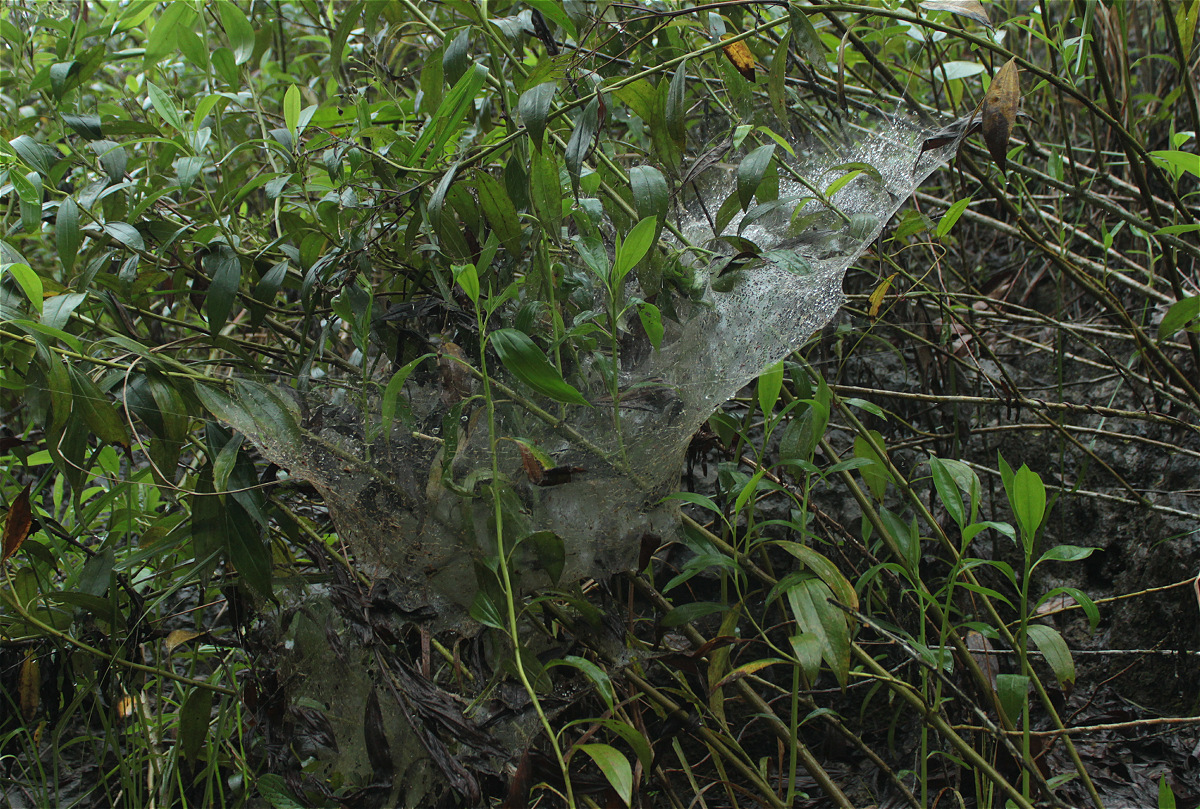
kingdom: Animalia
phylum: Arthropoda
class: Arachnida
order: Araneae
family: Theridiidae
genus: Anelosimus
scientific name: Anelosimus eximius
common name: Cobweb spiders
